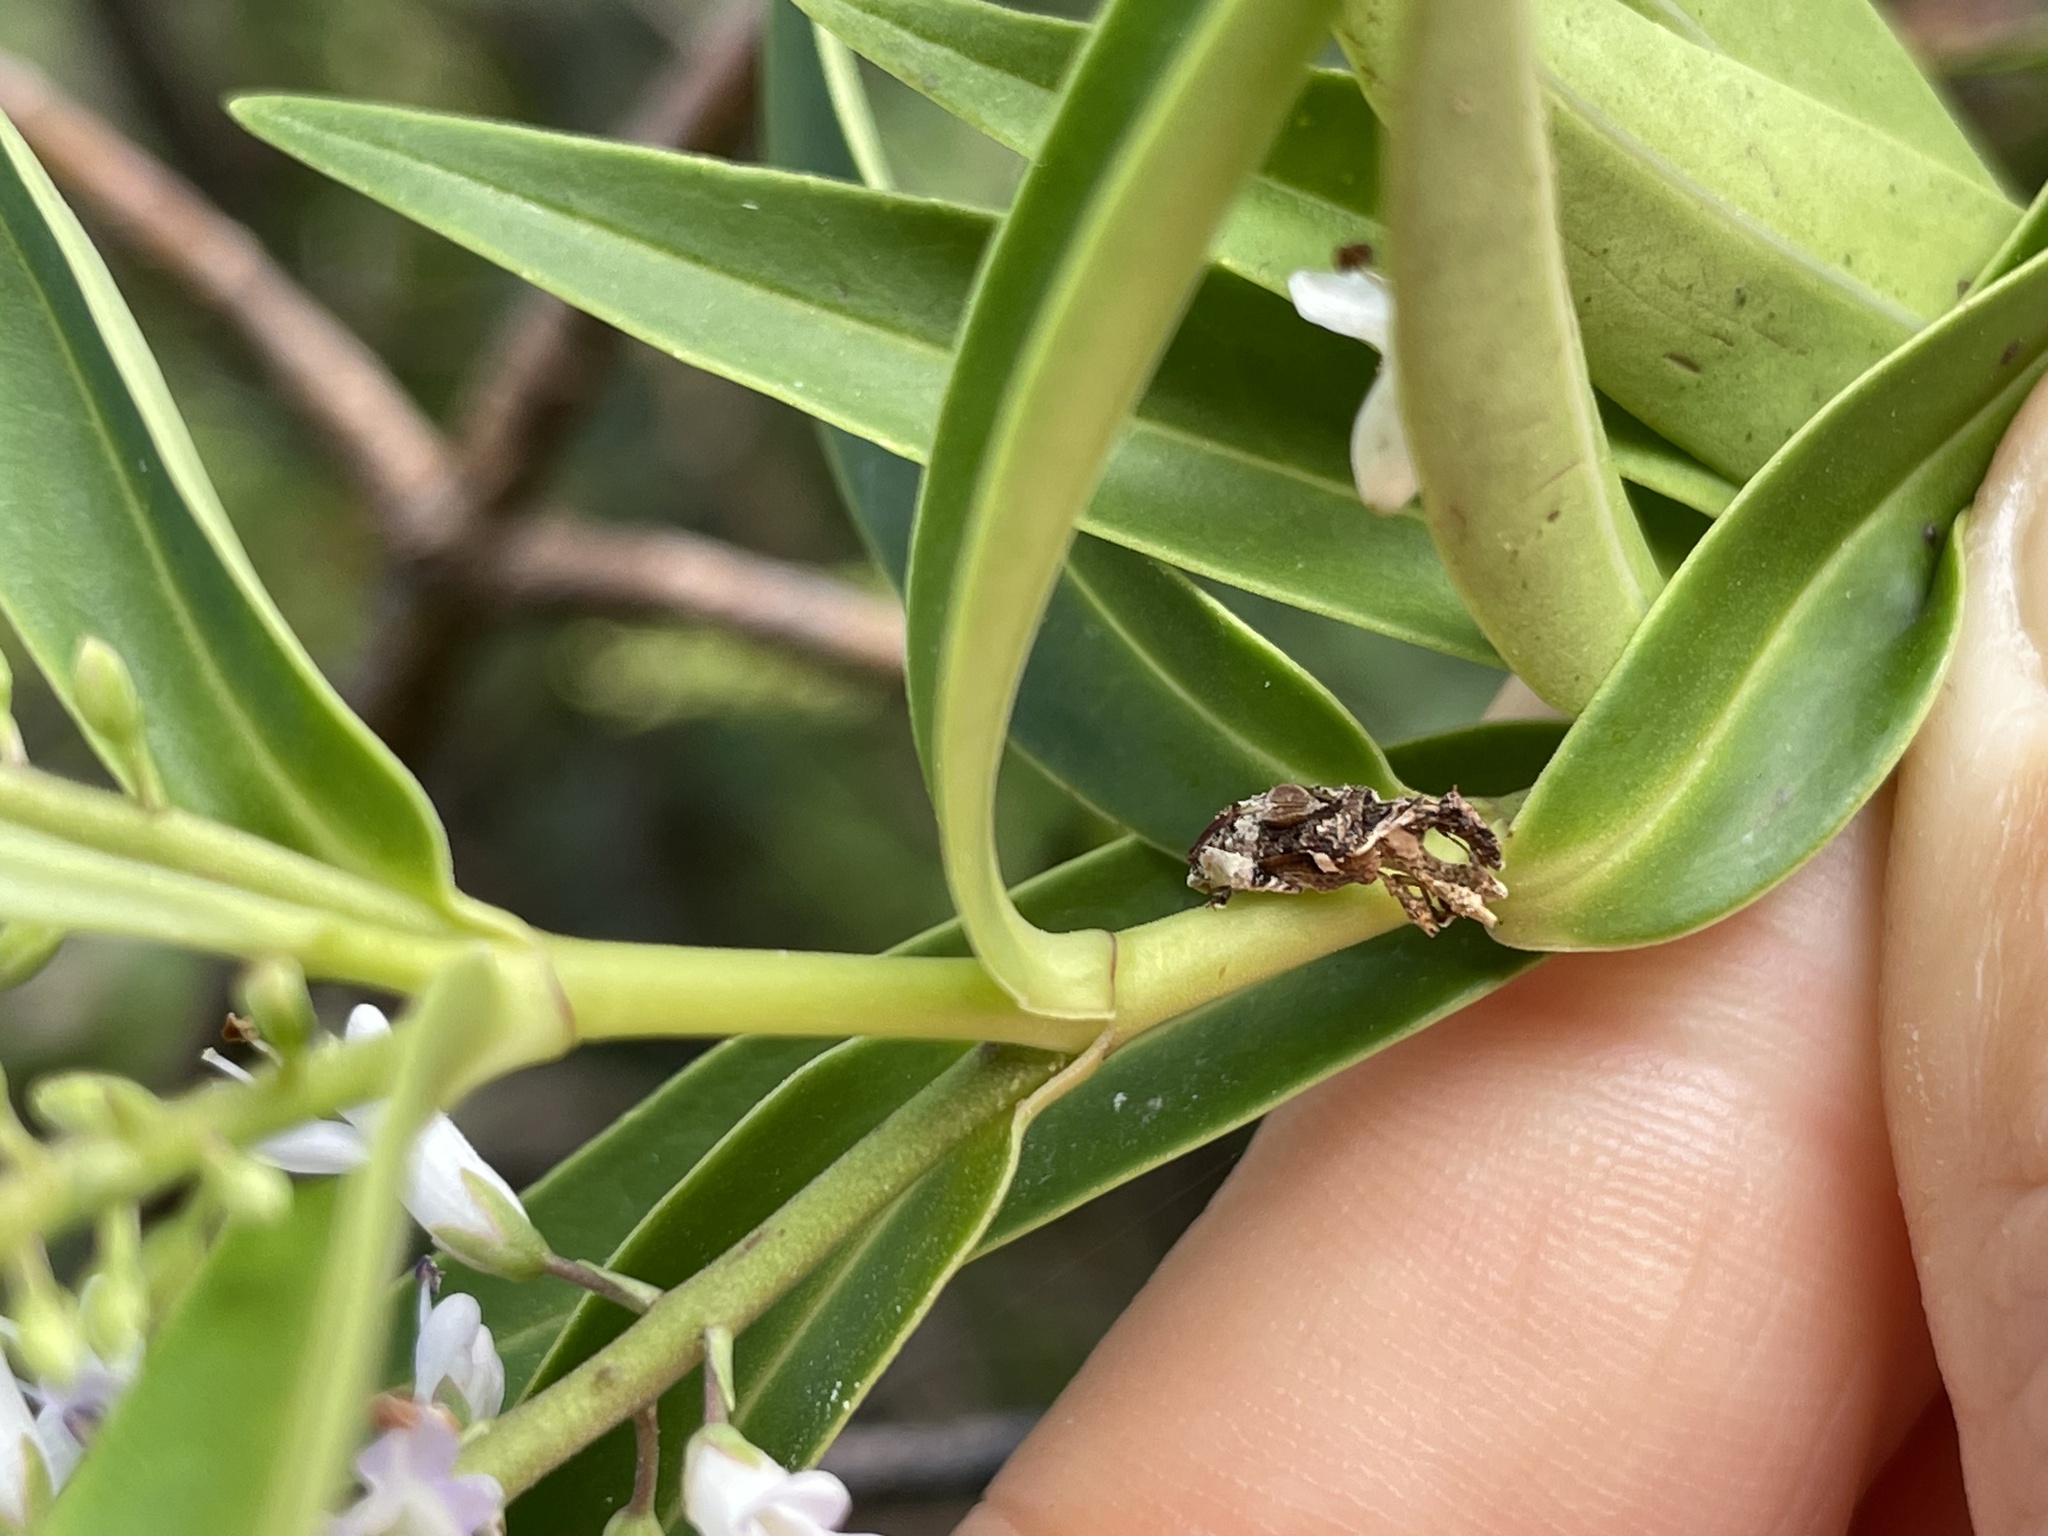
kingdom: Animalia
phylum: Arthropoda
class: Insecta
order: Coleoptera
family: Curculionidae
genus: Stephanorhynchus
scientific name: Stephanorhynchus curvipes
